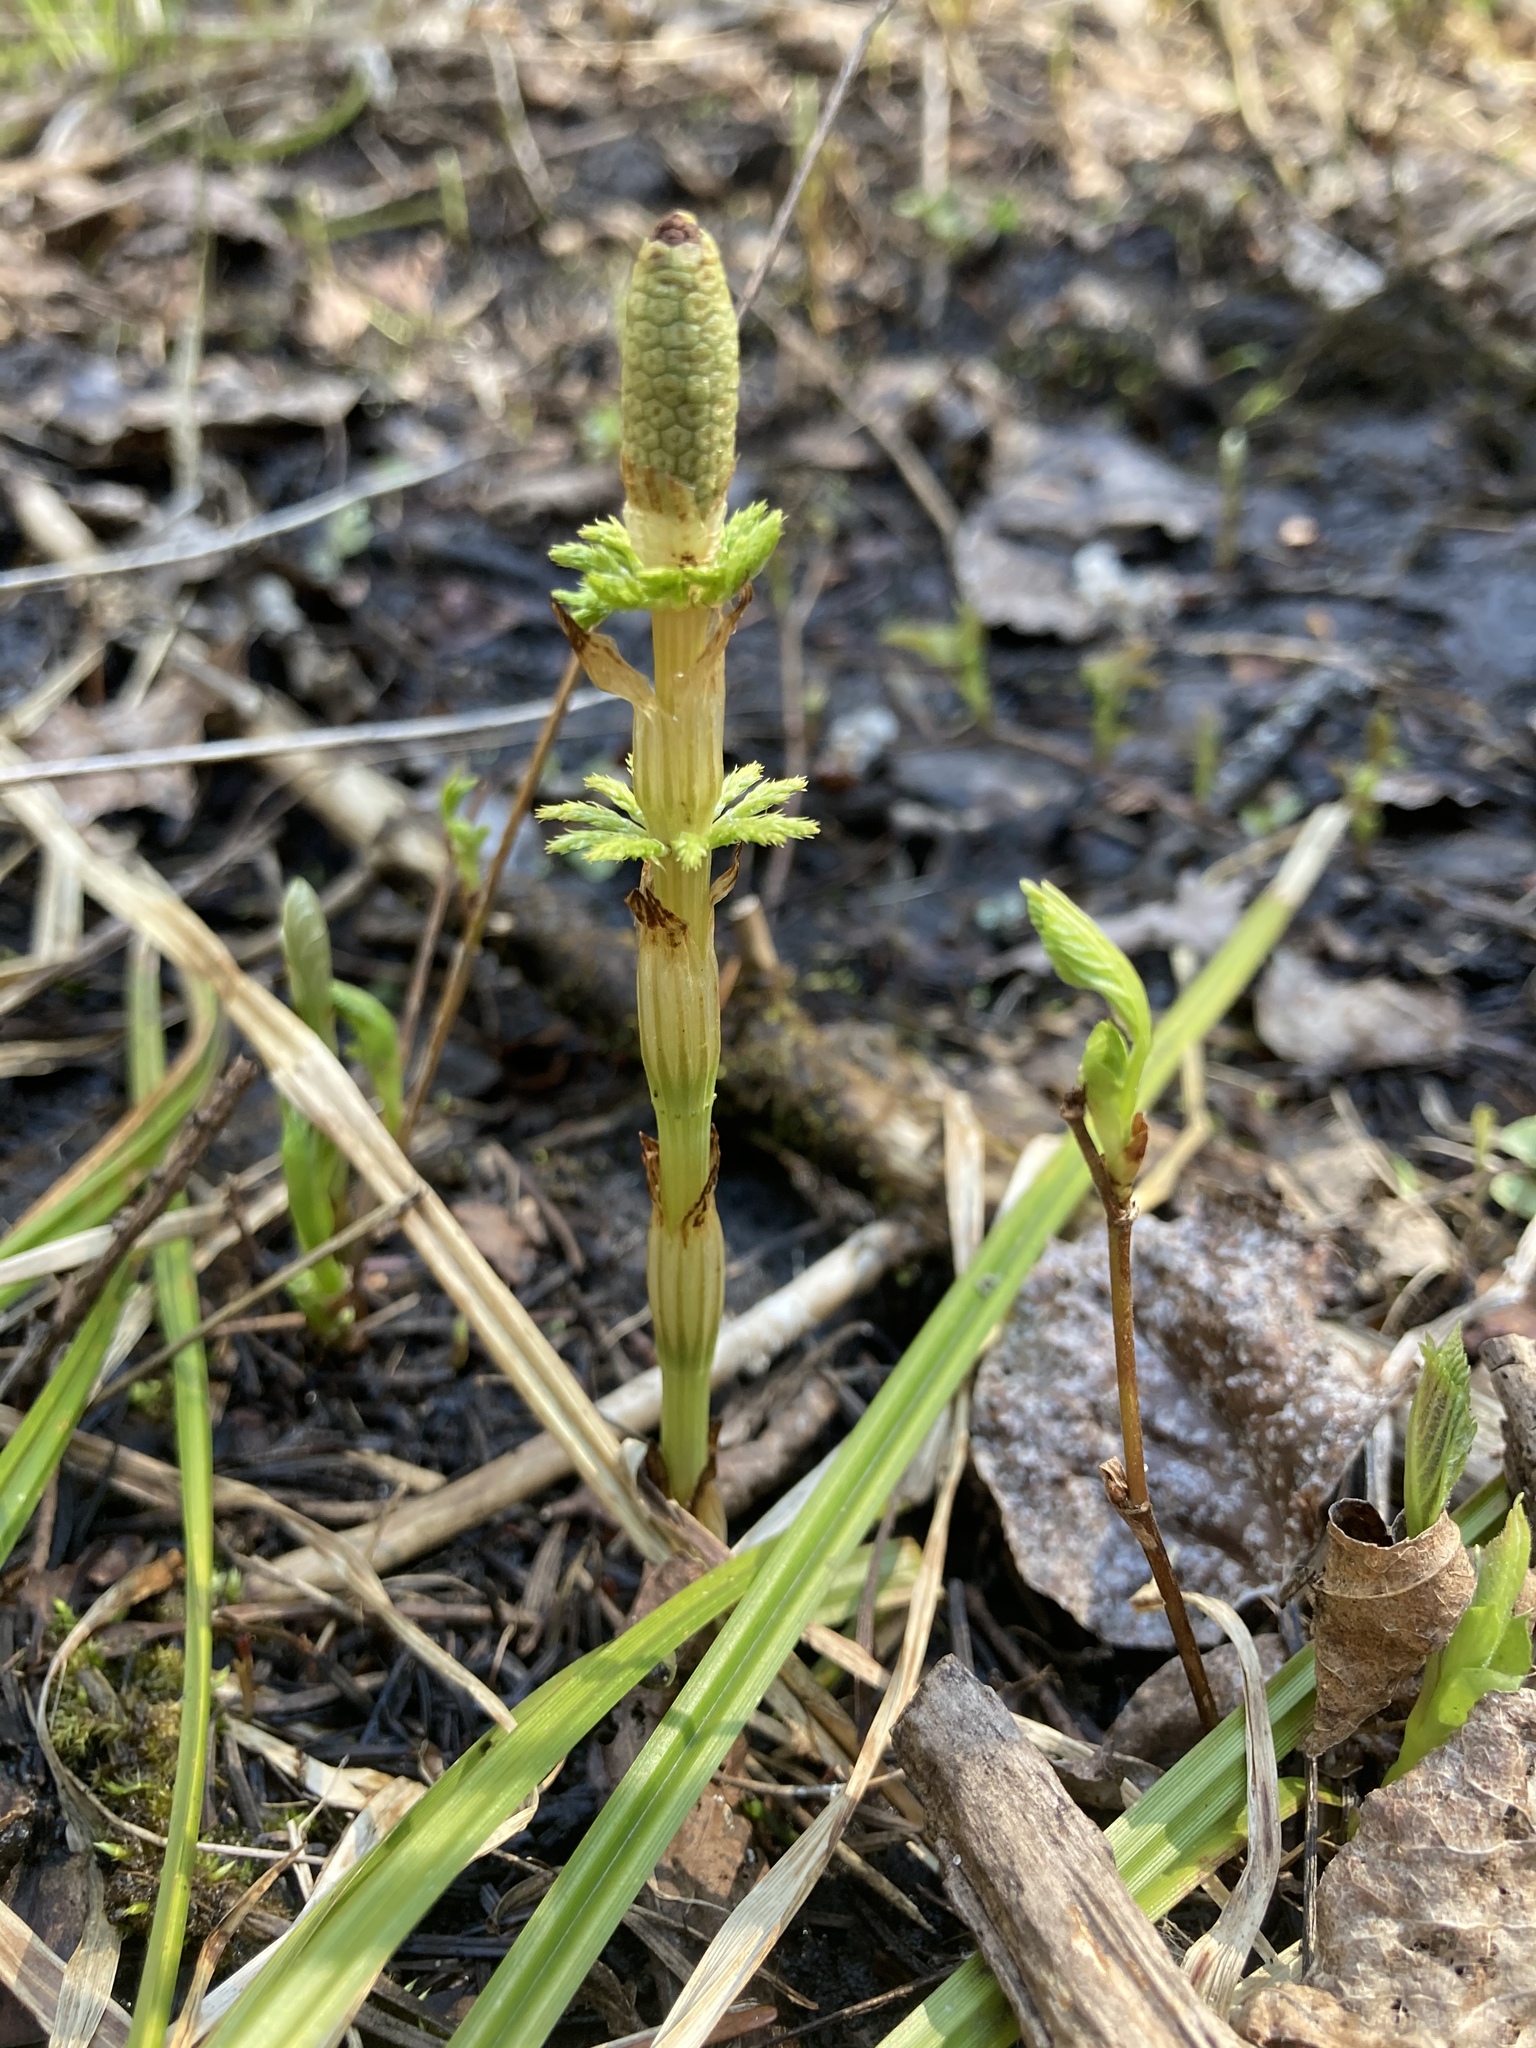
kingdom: Plantae
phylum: Tracheophyta
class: Polypodiopsida
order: Equisetales
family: Equisetaceae
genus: Equisetum
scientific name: Equisetum sylvaticum
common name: Wood horsetail
